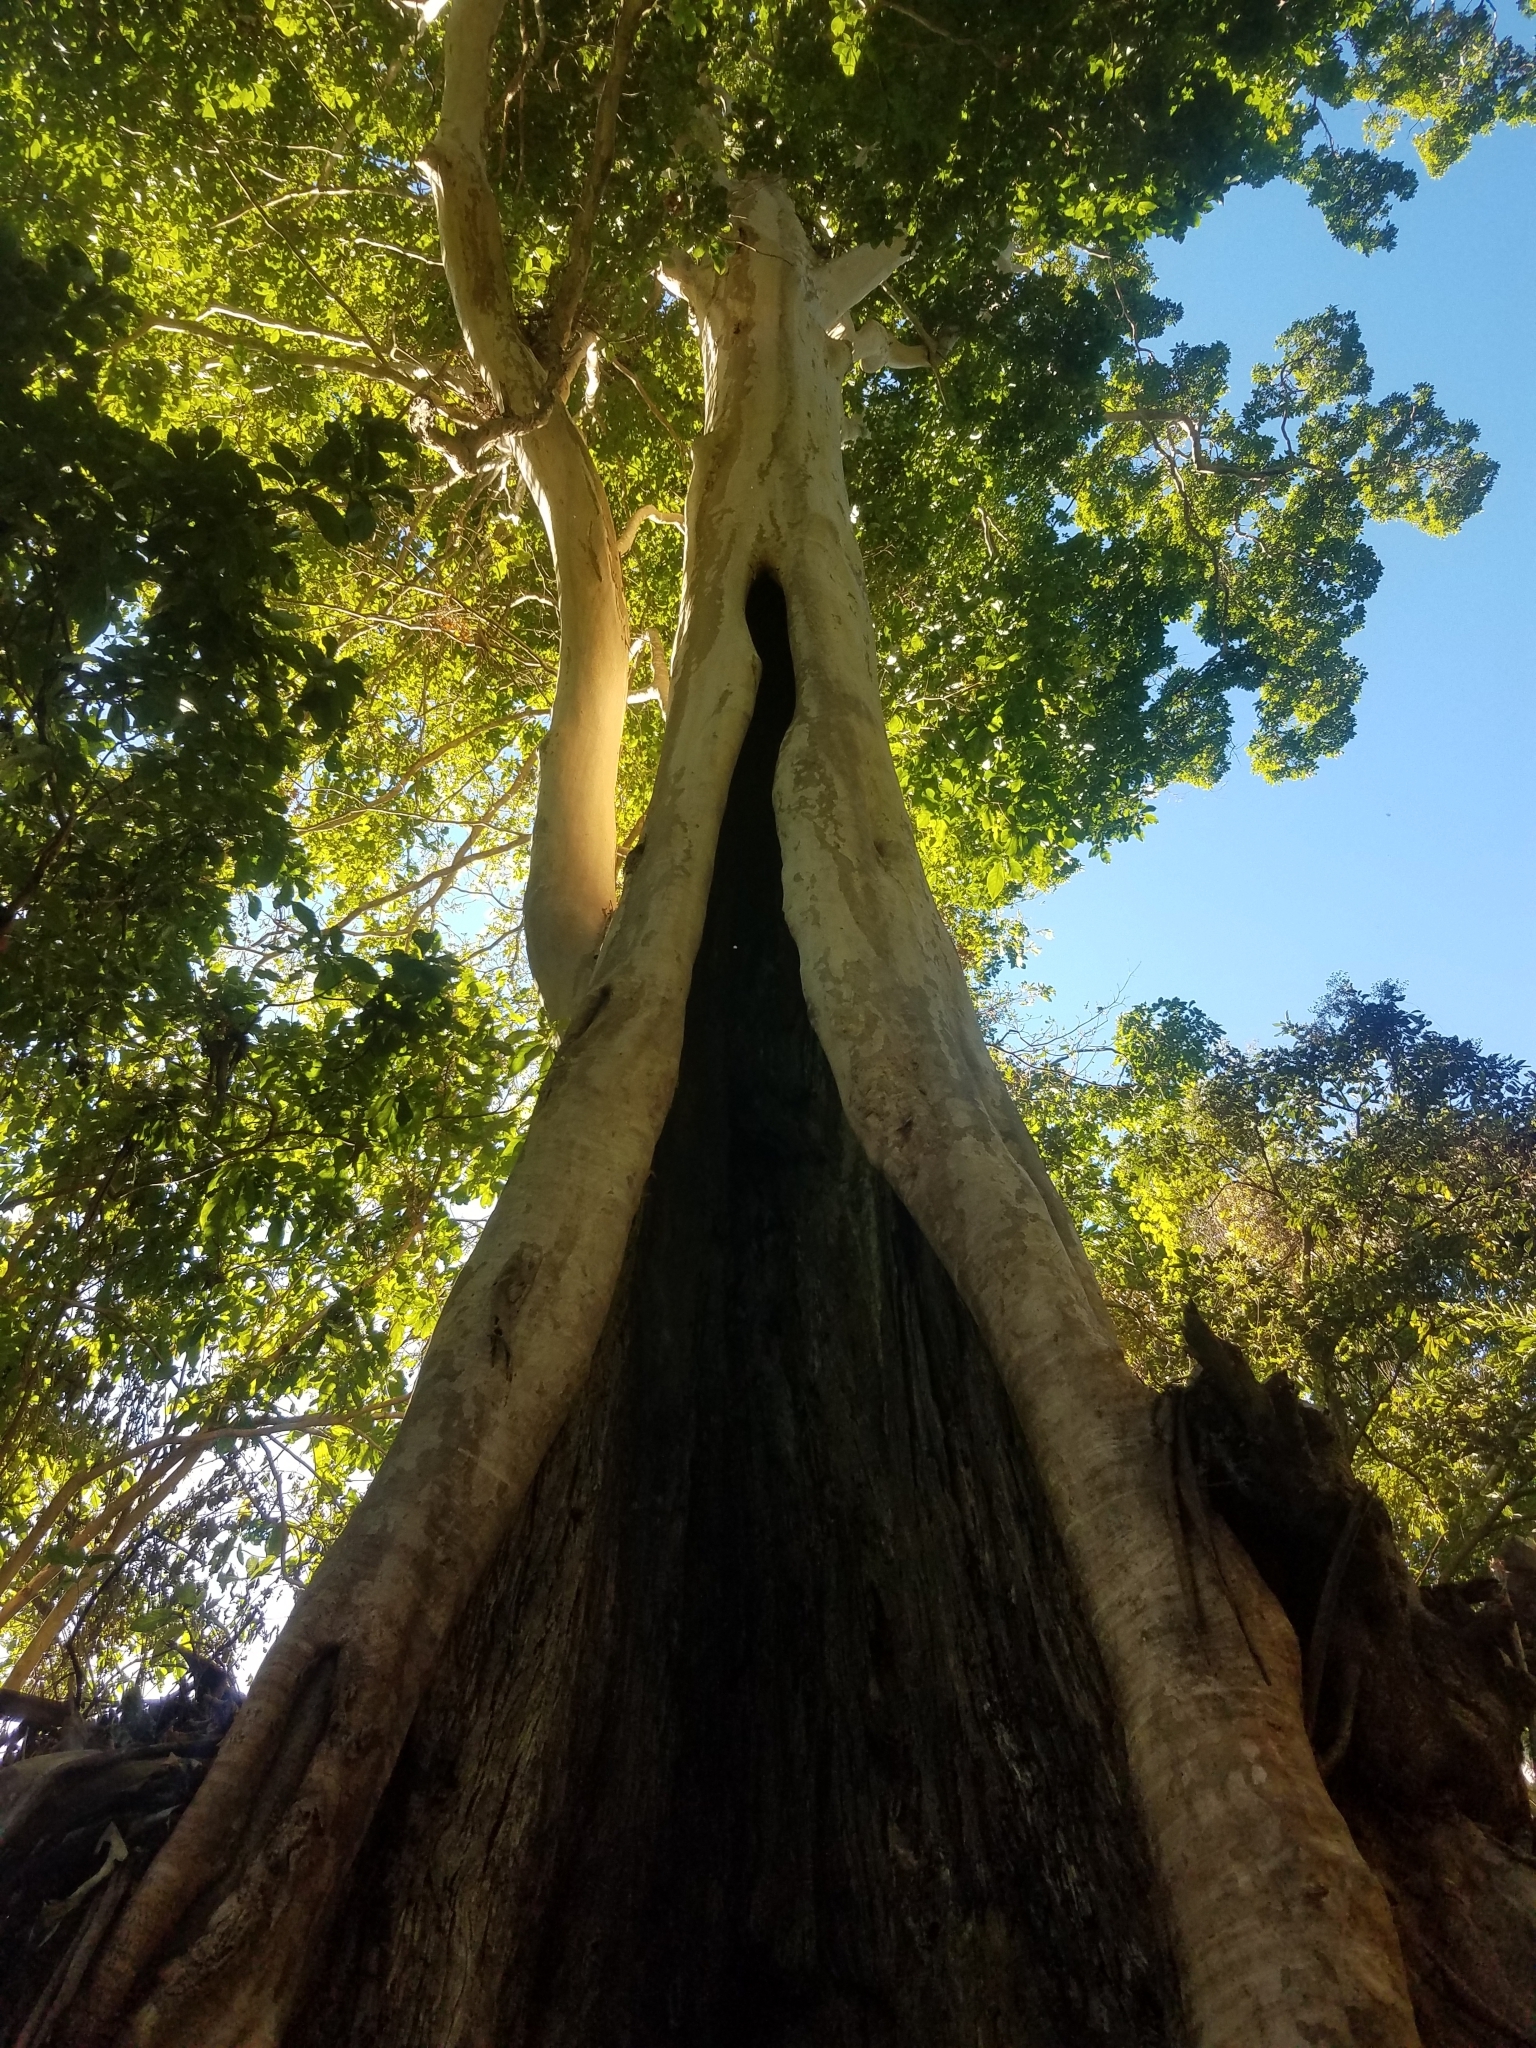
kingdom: Plantae
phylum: Tracheophyta
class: Magnoliopsida
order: Myrtales
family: Combretaceae
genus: Terminalia
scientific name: Terminalia oblonga
